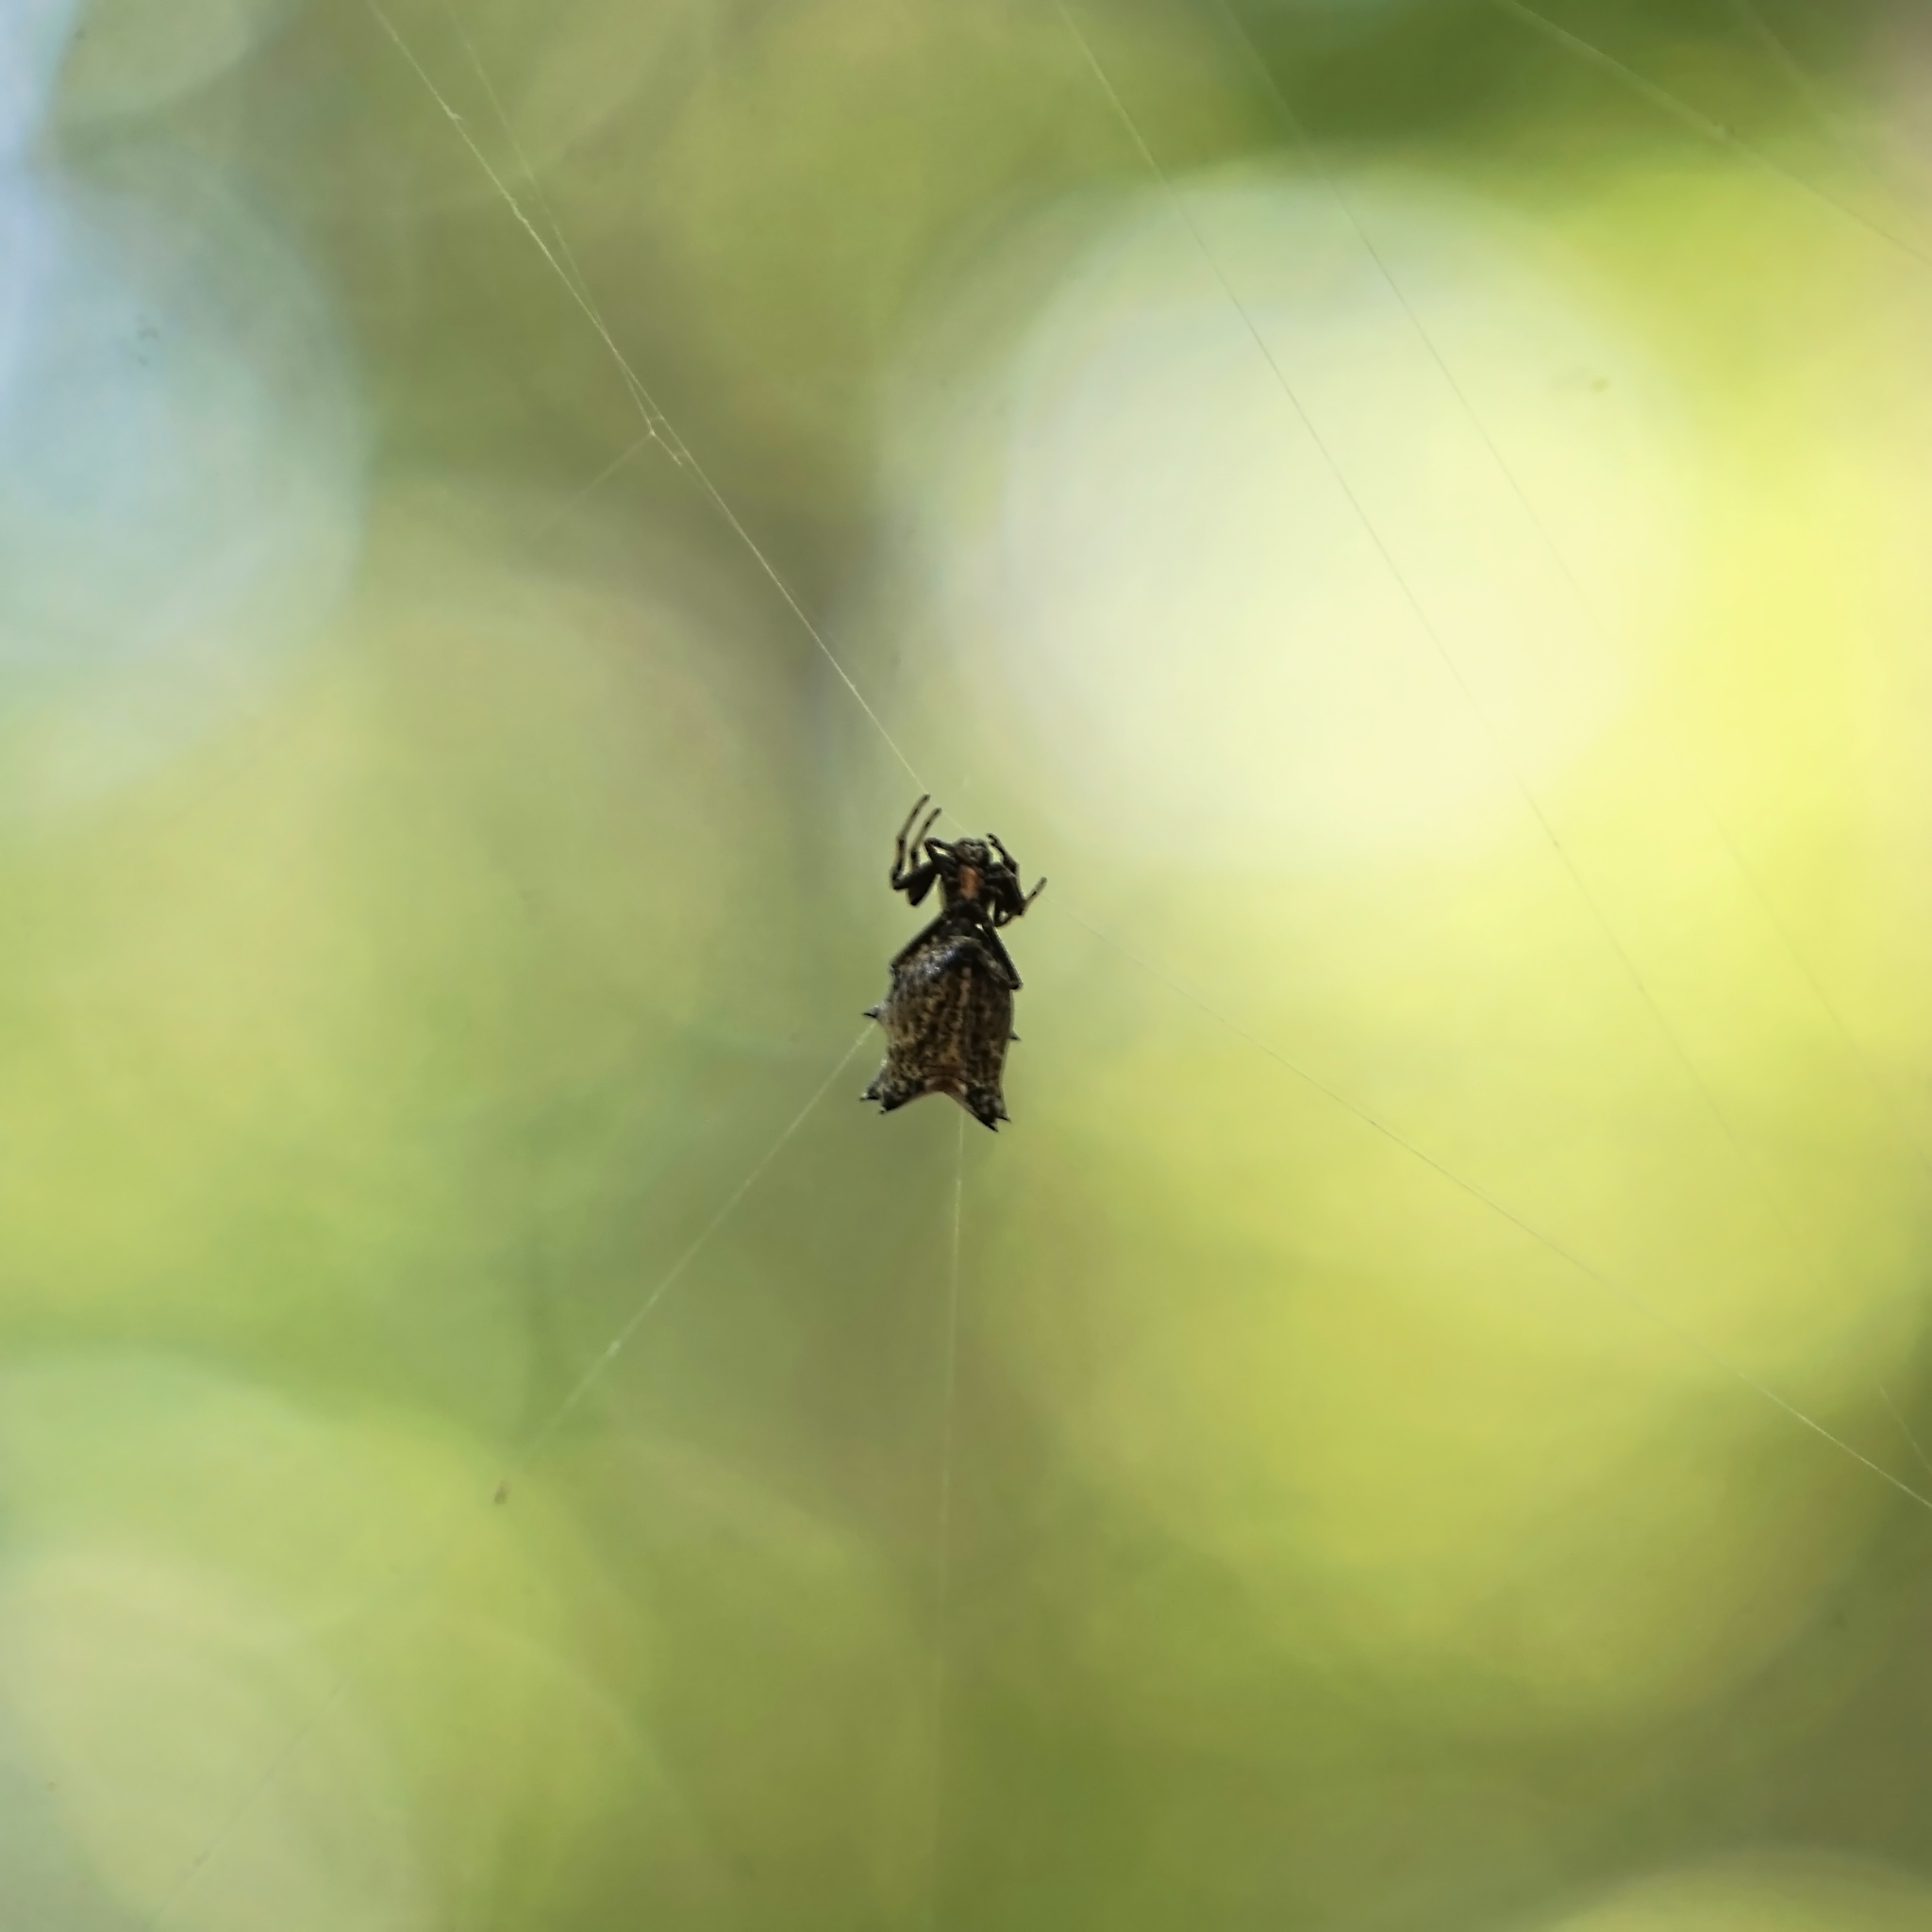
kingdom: Animalia
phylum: Arthropoda
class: Arachnida
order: Araneae
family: Araneidae
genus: Micrathena
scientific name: Micrathena gracilis
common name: Orb weavers
